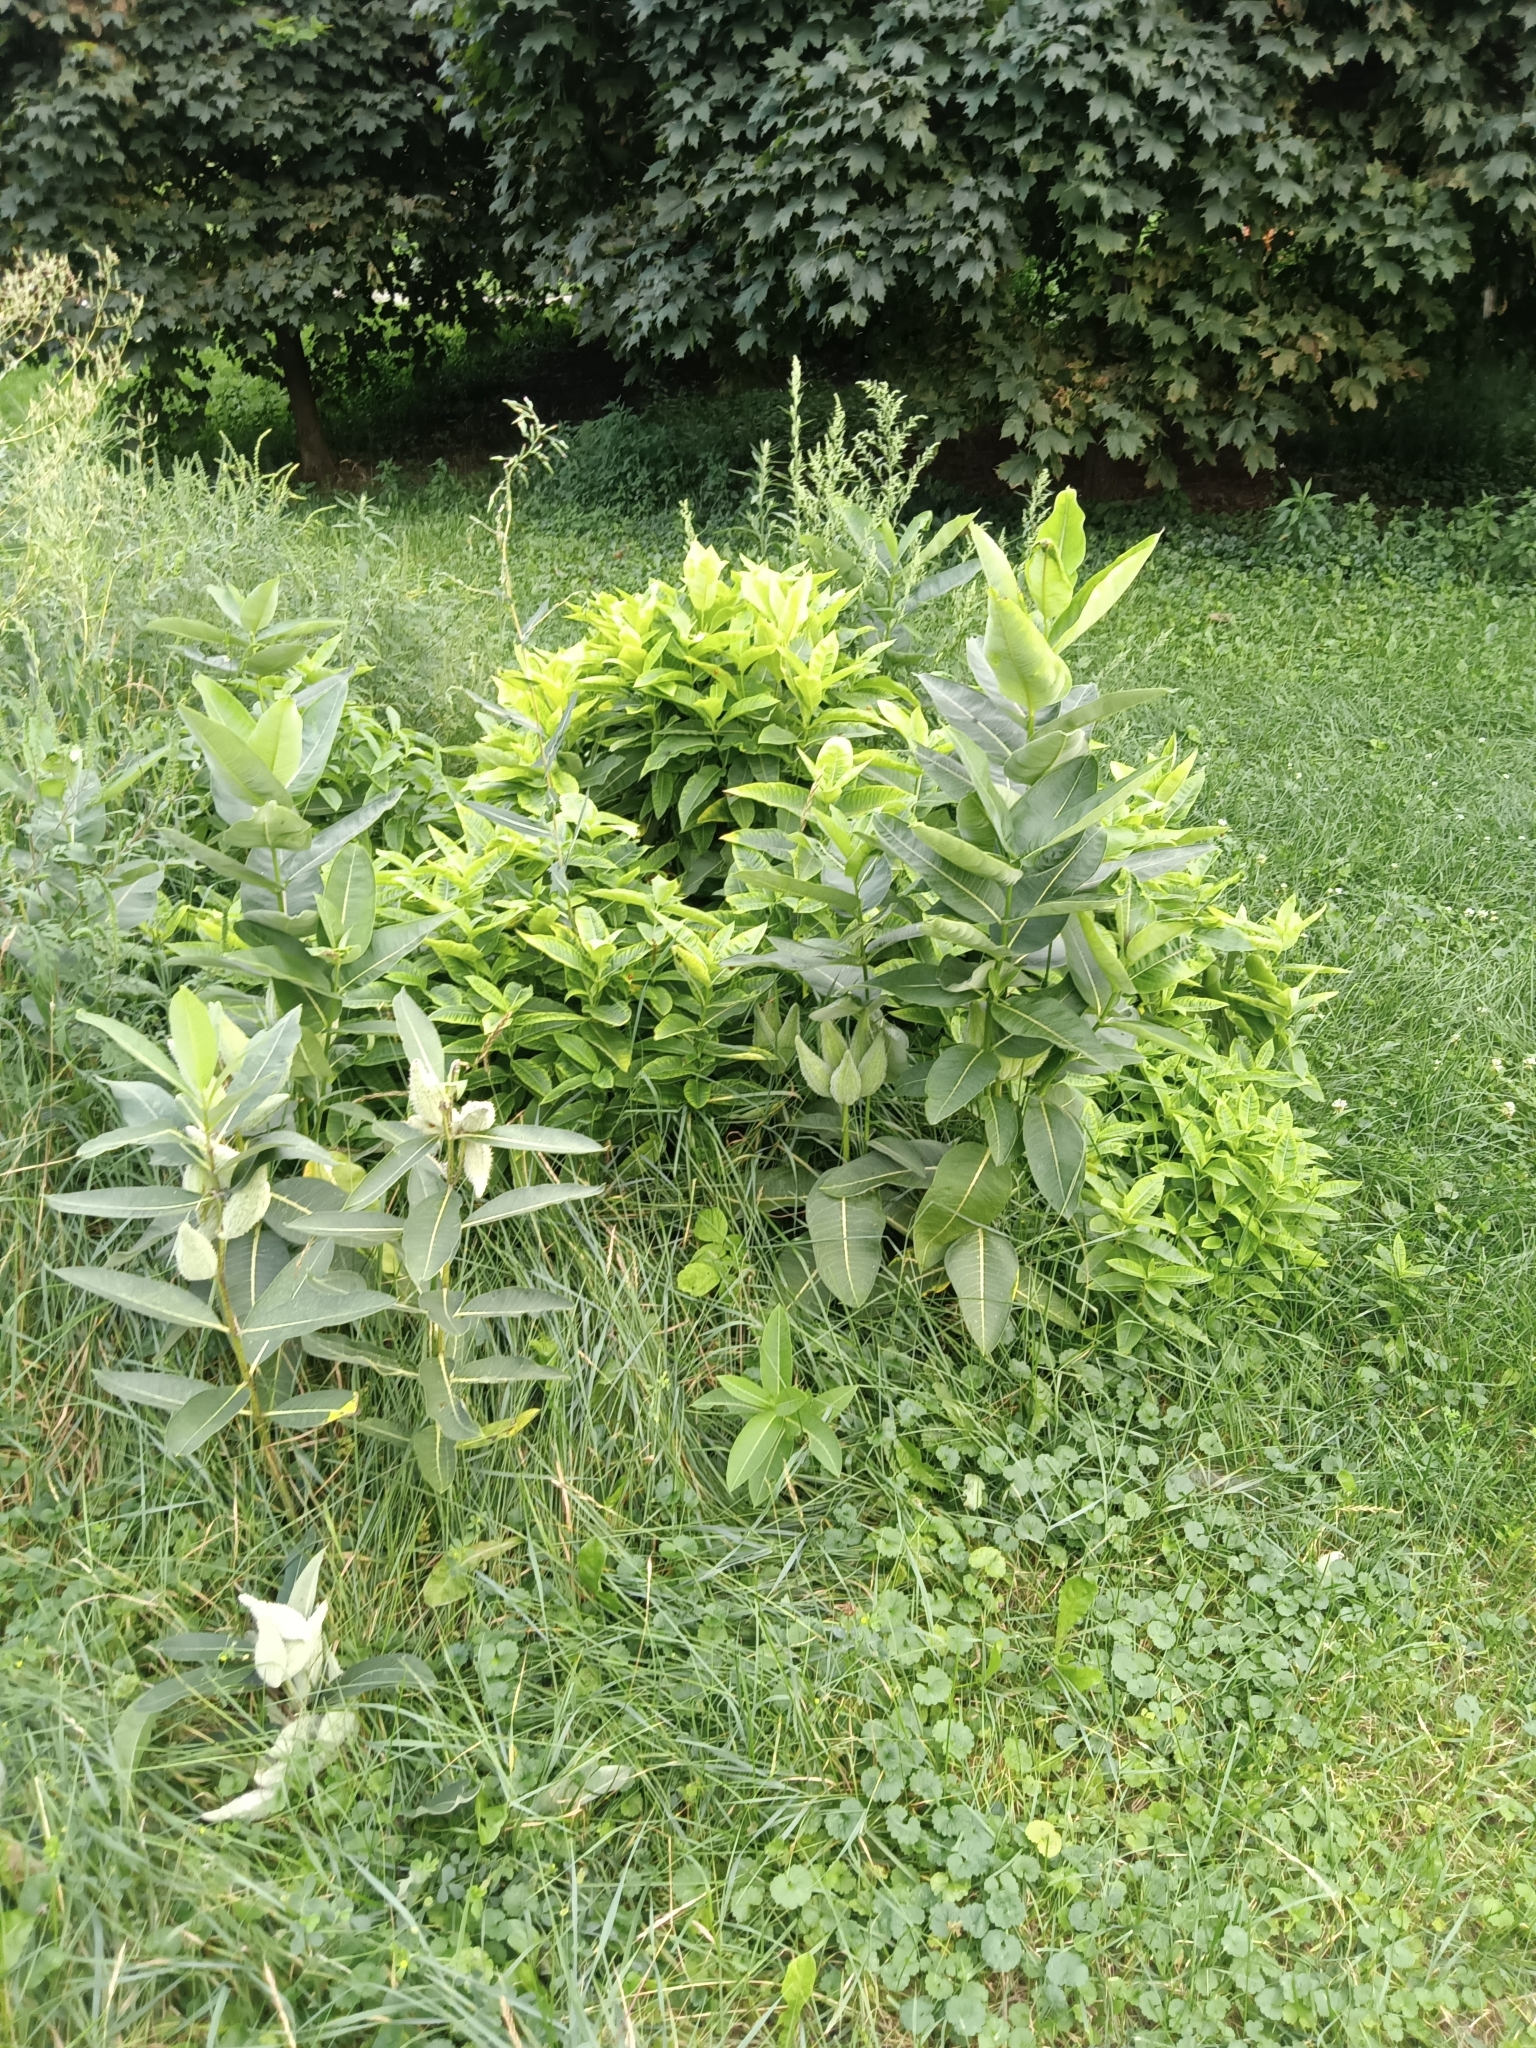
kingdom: Plantae
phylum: Tracheophyta
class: Magnoliopsida
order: Gentianales
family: Apocynaceae
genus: Asclepias
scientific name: Asclepias syriaca
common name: Common milkweed
